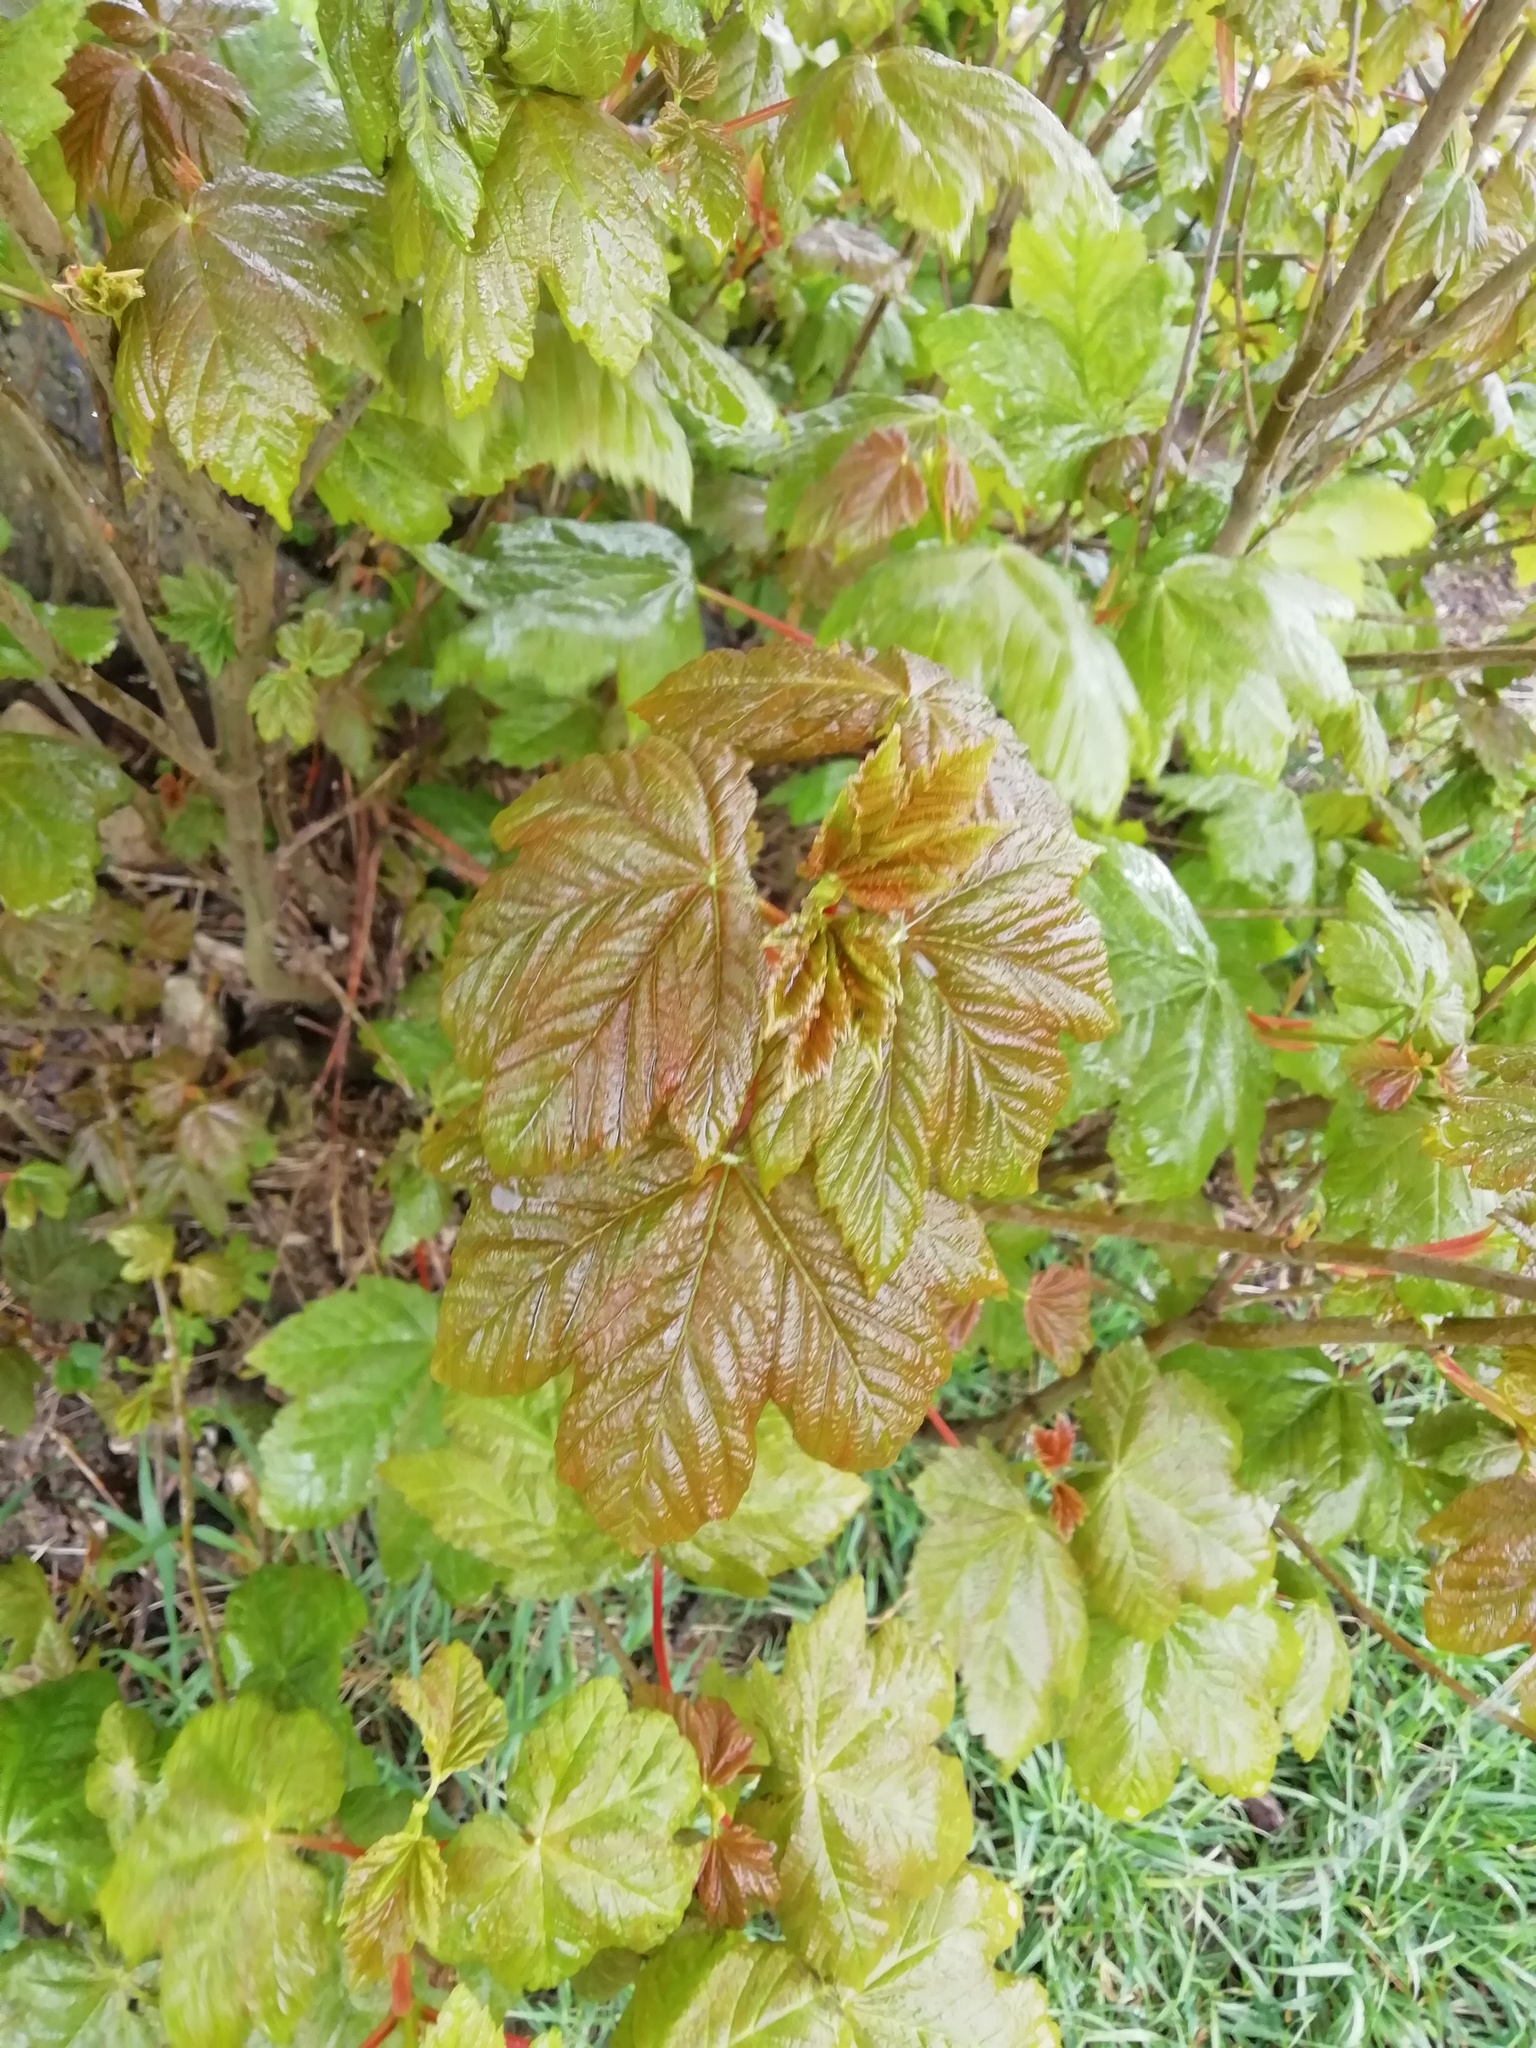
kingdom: Plantae
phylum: Tracheophyta
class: Magnoliopsida
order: Sapindales
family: Sapindaceae
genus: Acer
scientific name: Acer pseudoplatanus
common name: Sycamore
